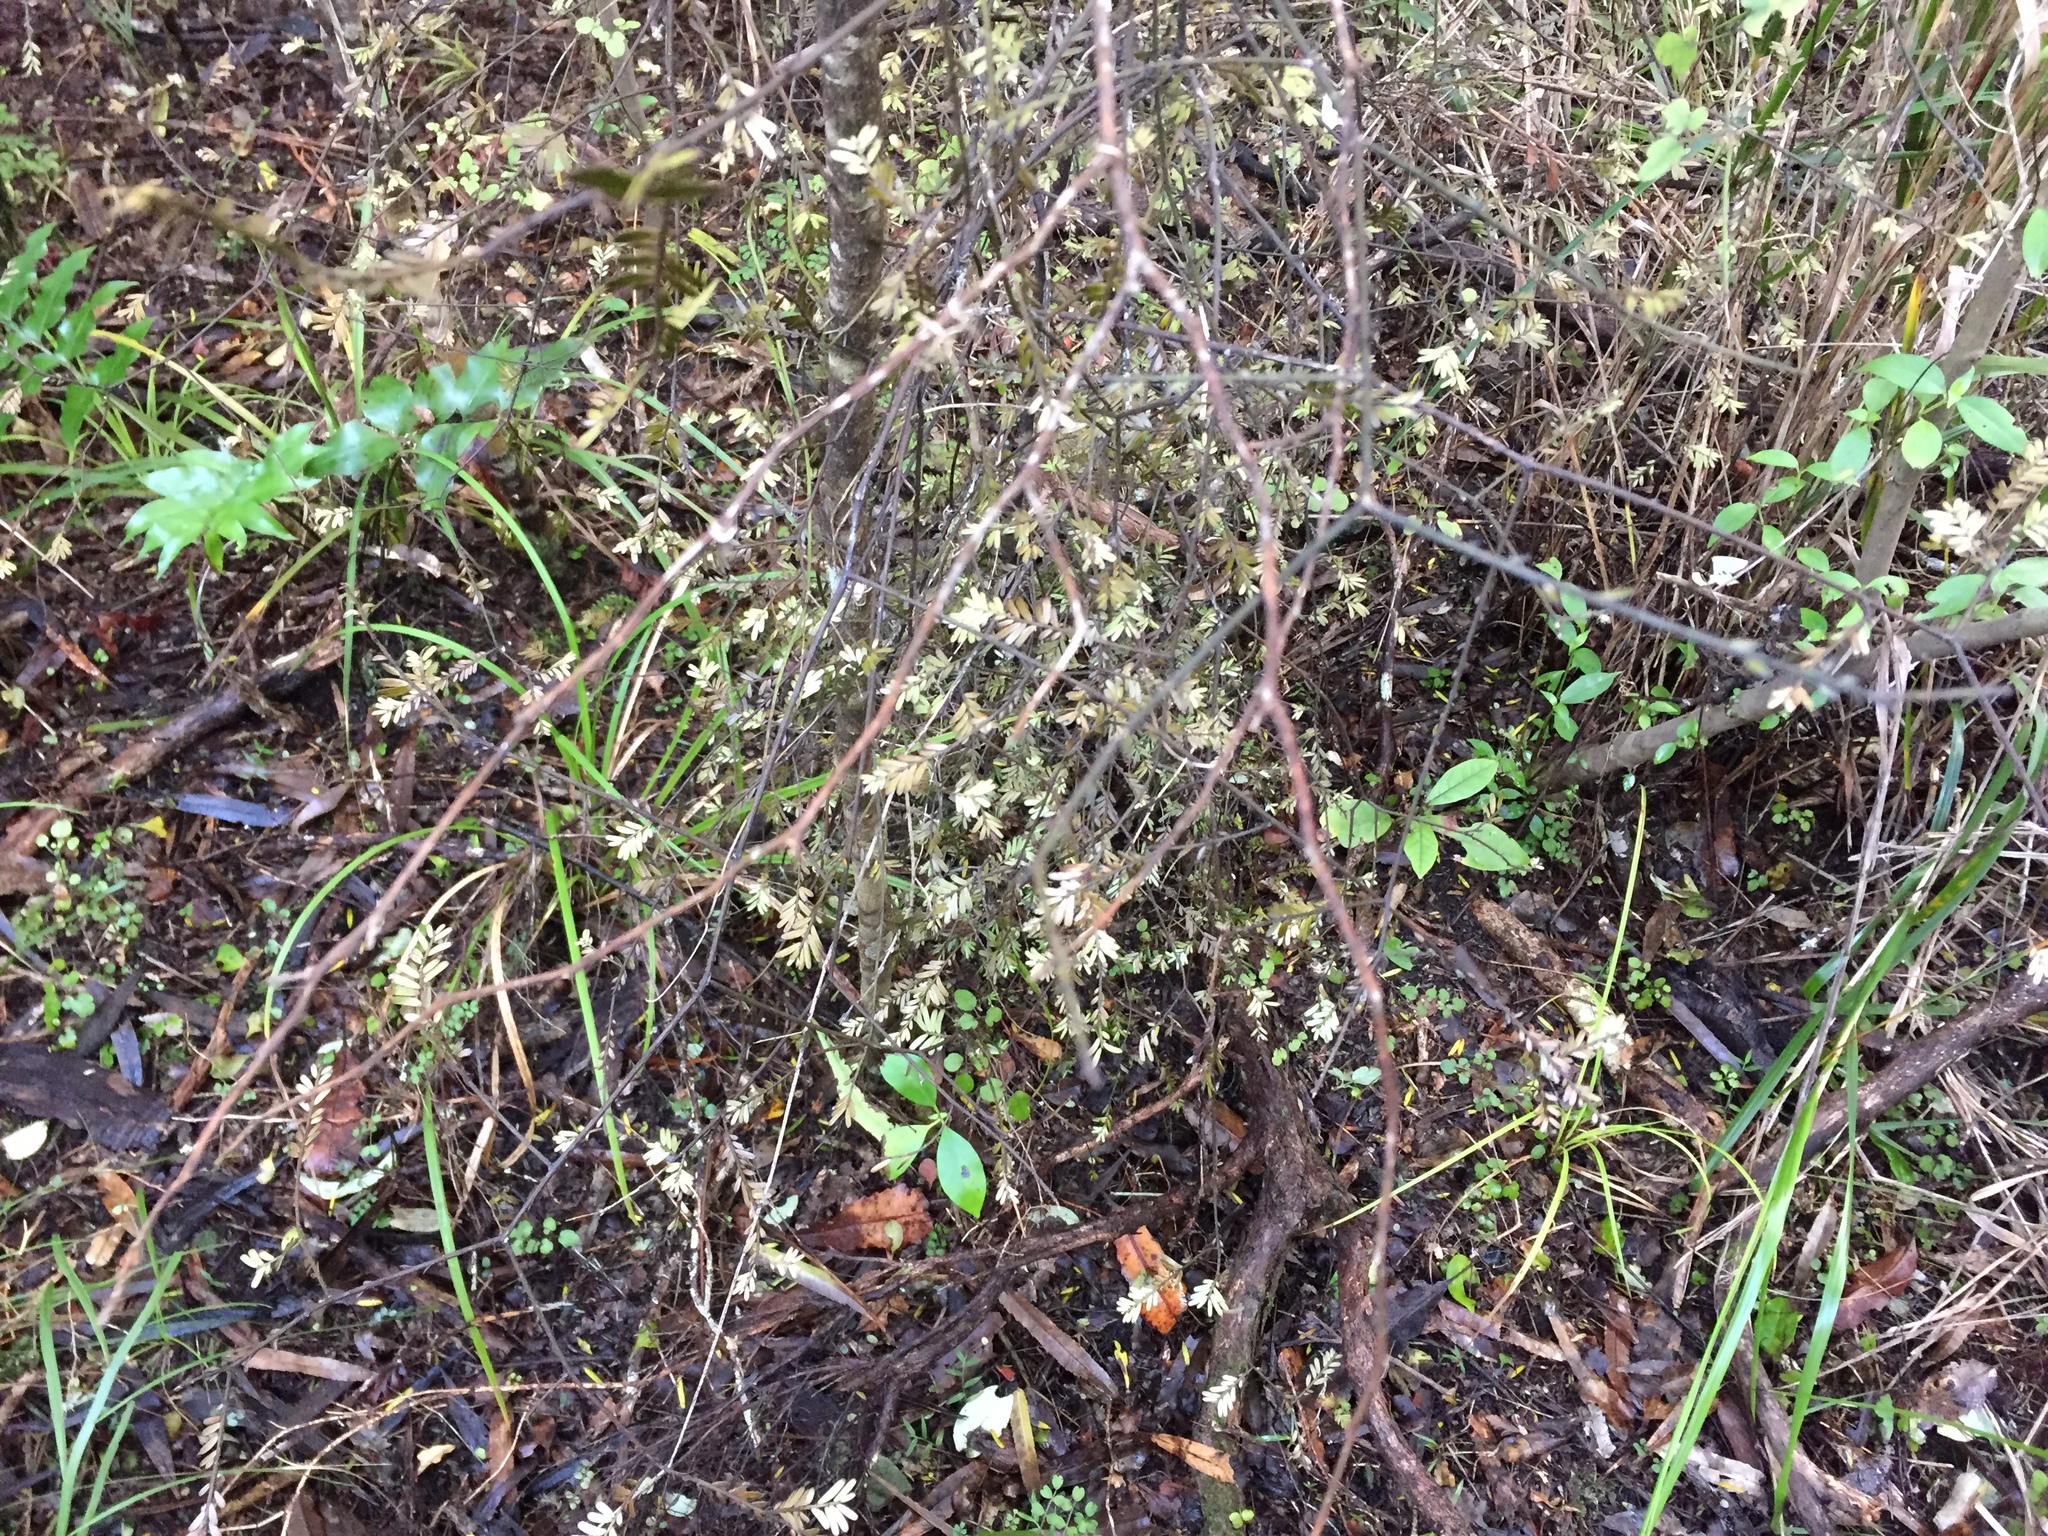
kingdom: Plantae
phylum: Tracheophyta
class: Pinopsida
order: Pinales
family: Podocarpaceae
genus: Prumnopitys
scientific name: Prumnopitys taxifolia
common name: Matai
